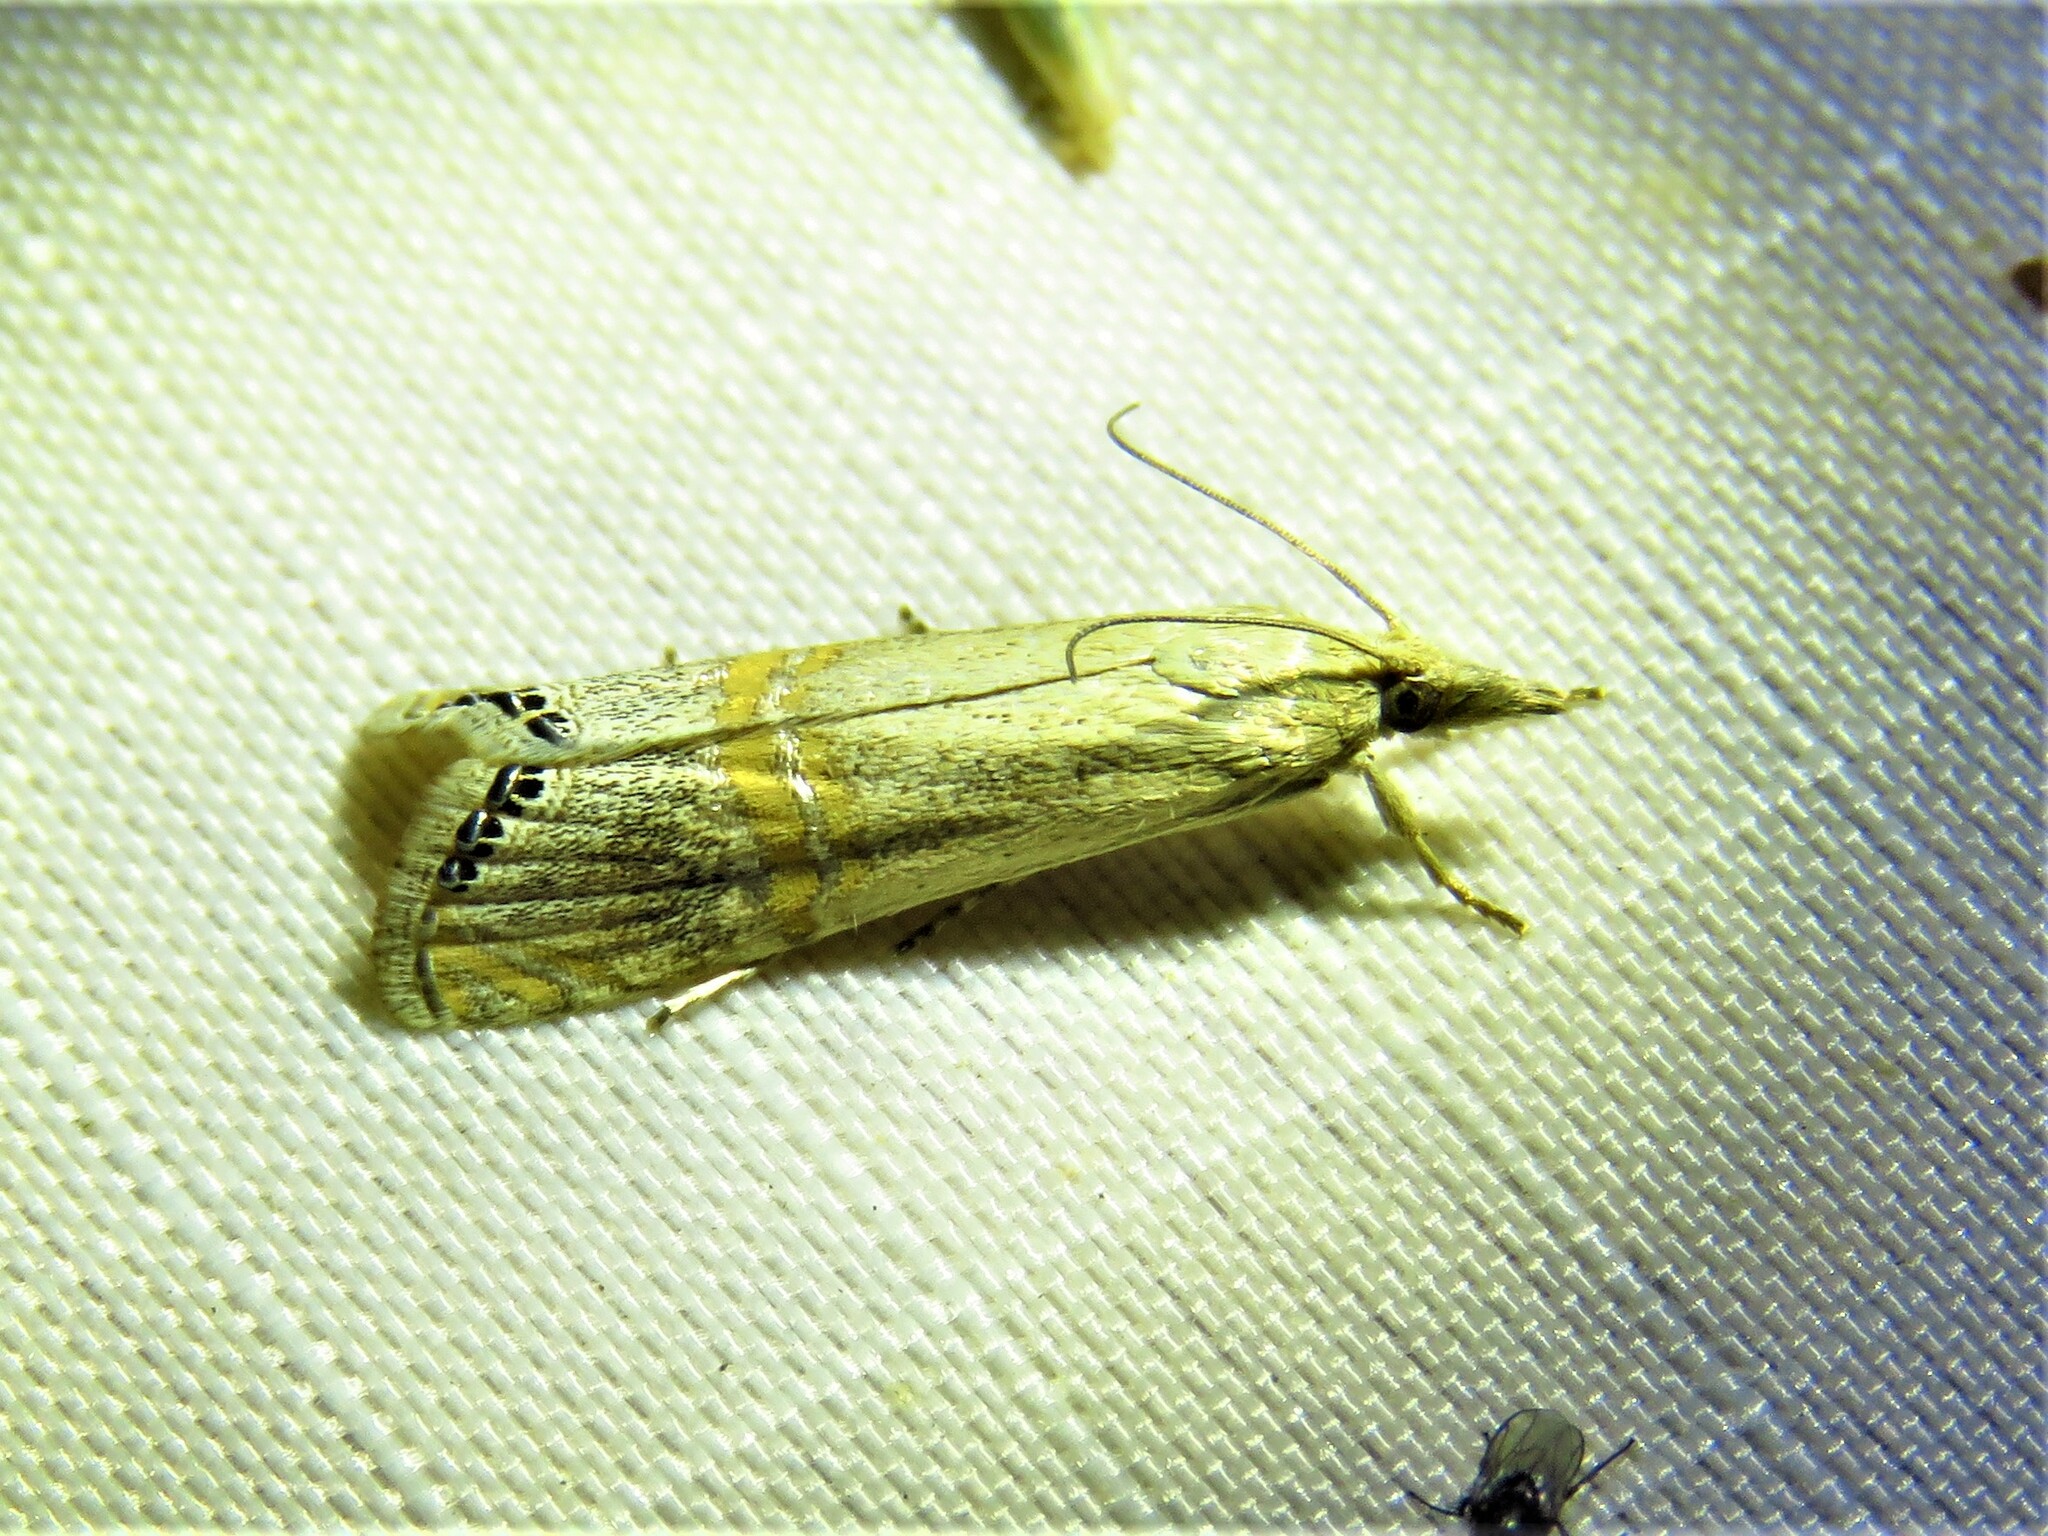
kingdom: Animalia
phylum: Arthropoda
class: Insecta
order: Lepidoptera
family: Crambidae
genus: Euchromius
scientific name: Euchromius ocellea
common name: Necklace veneer moth
